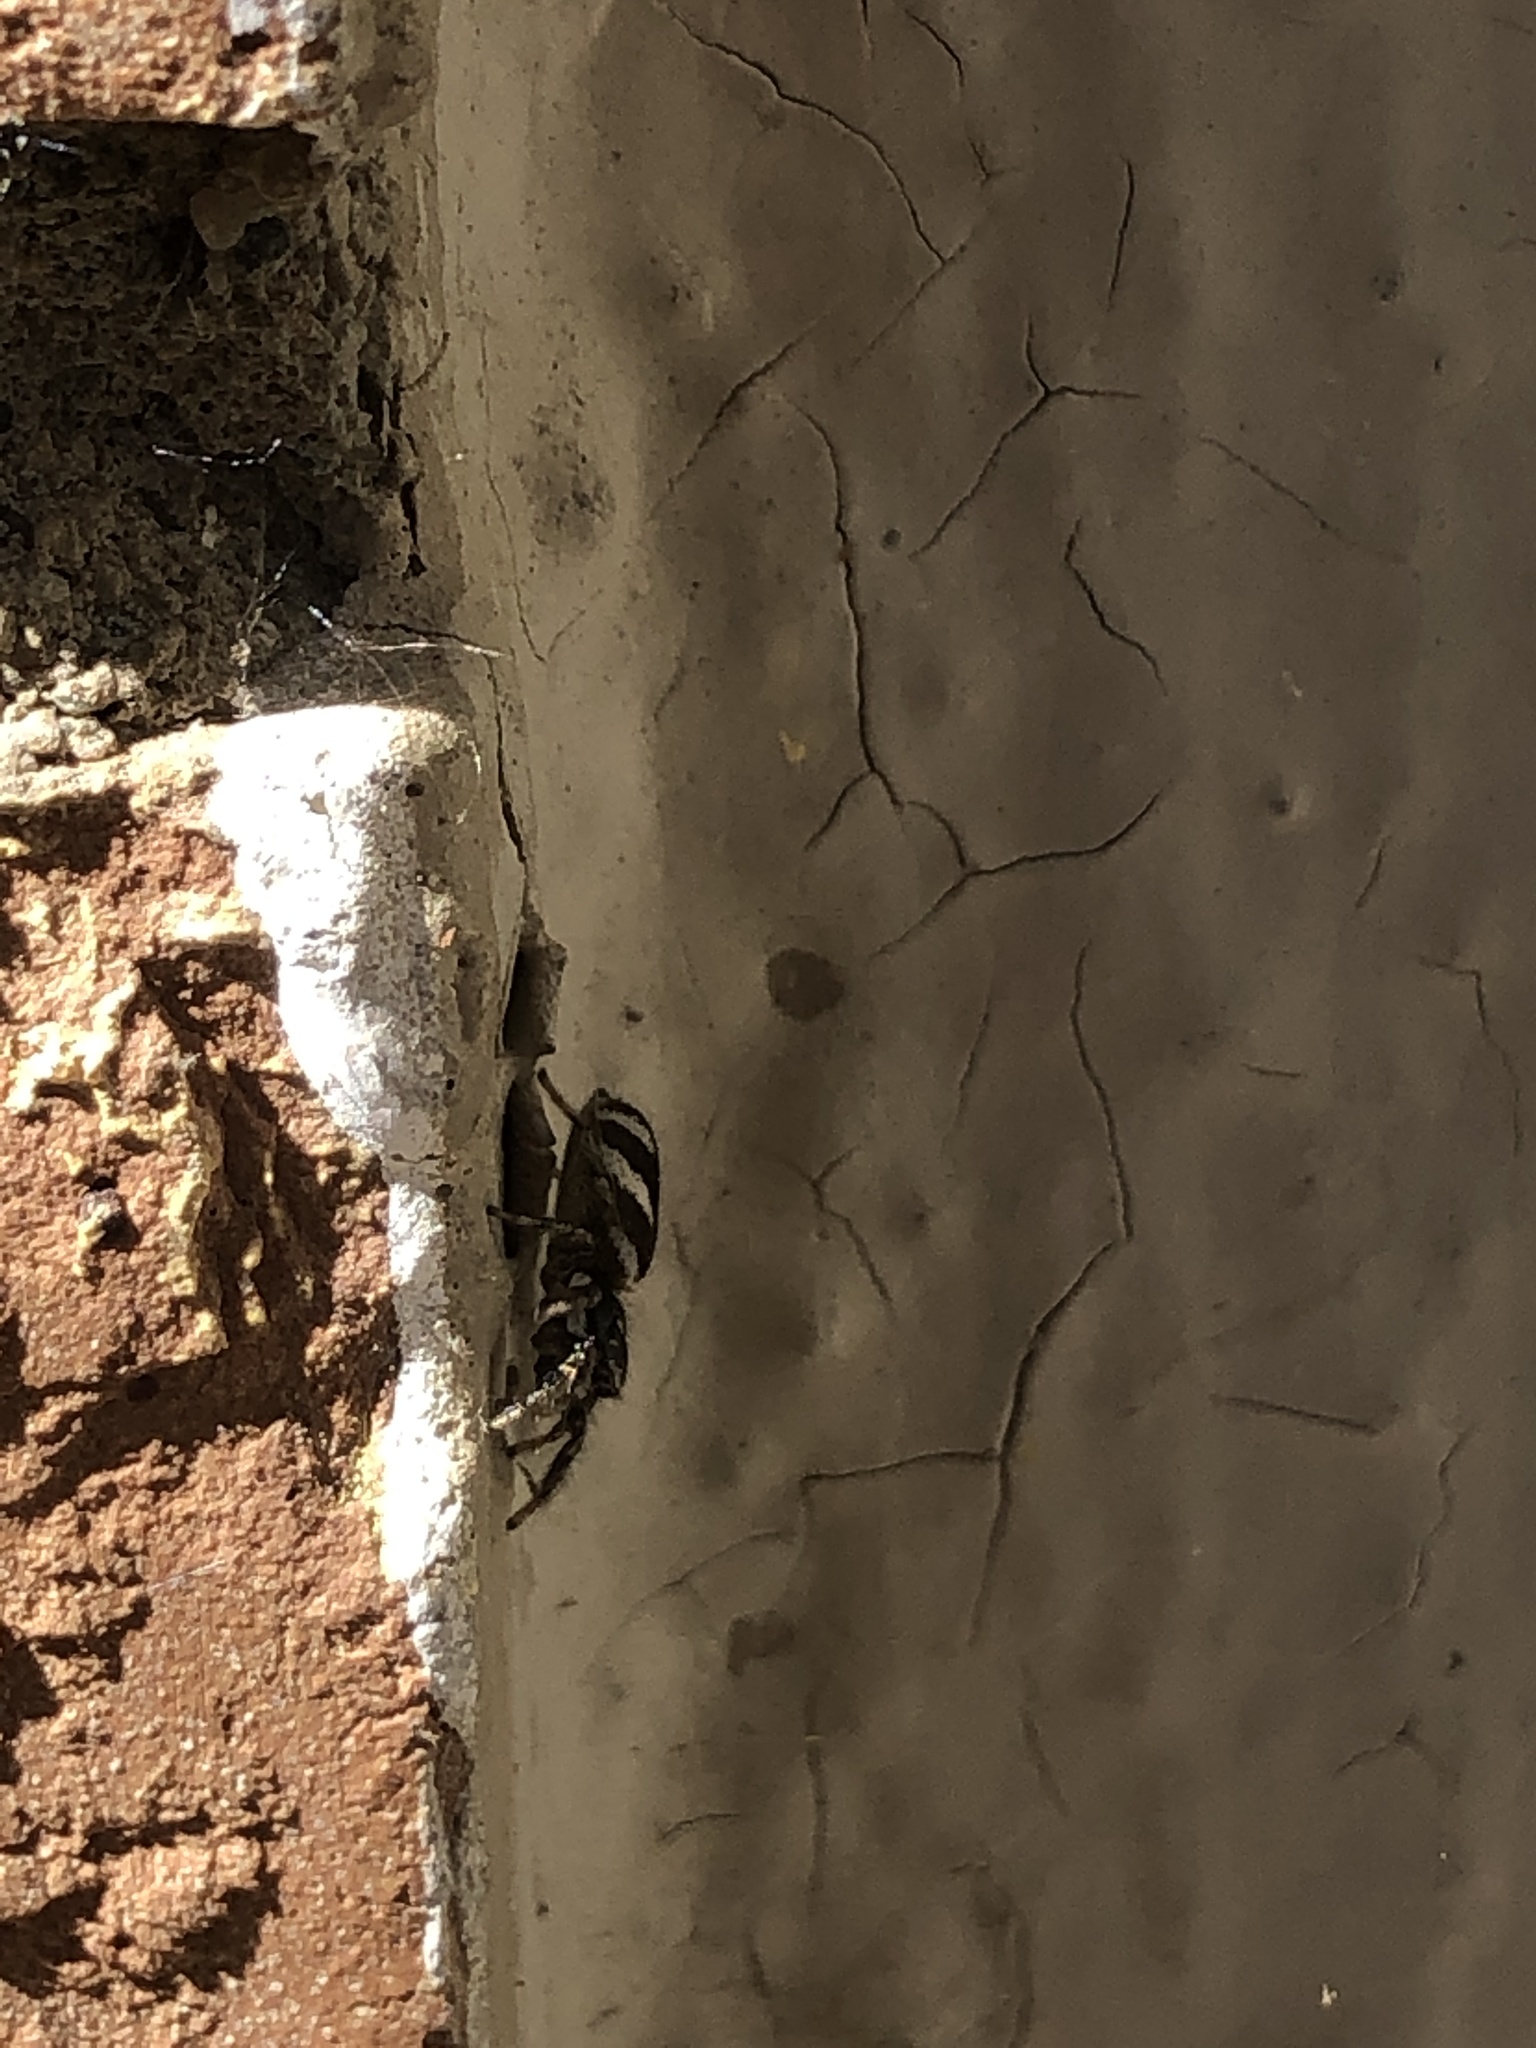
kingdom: Animalia
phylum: Arthropoda
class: Arachnida
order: Araneae
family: Salticidae
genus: Salticus
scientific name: Salticus scenicus
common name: Zebra jumper
